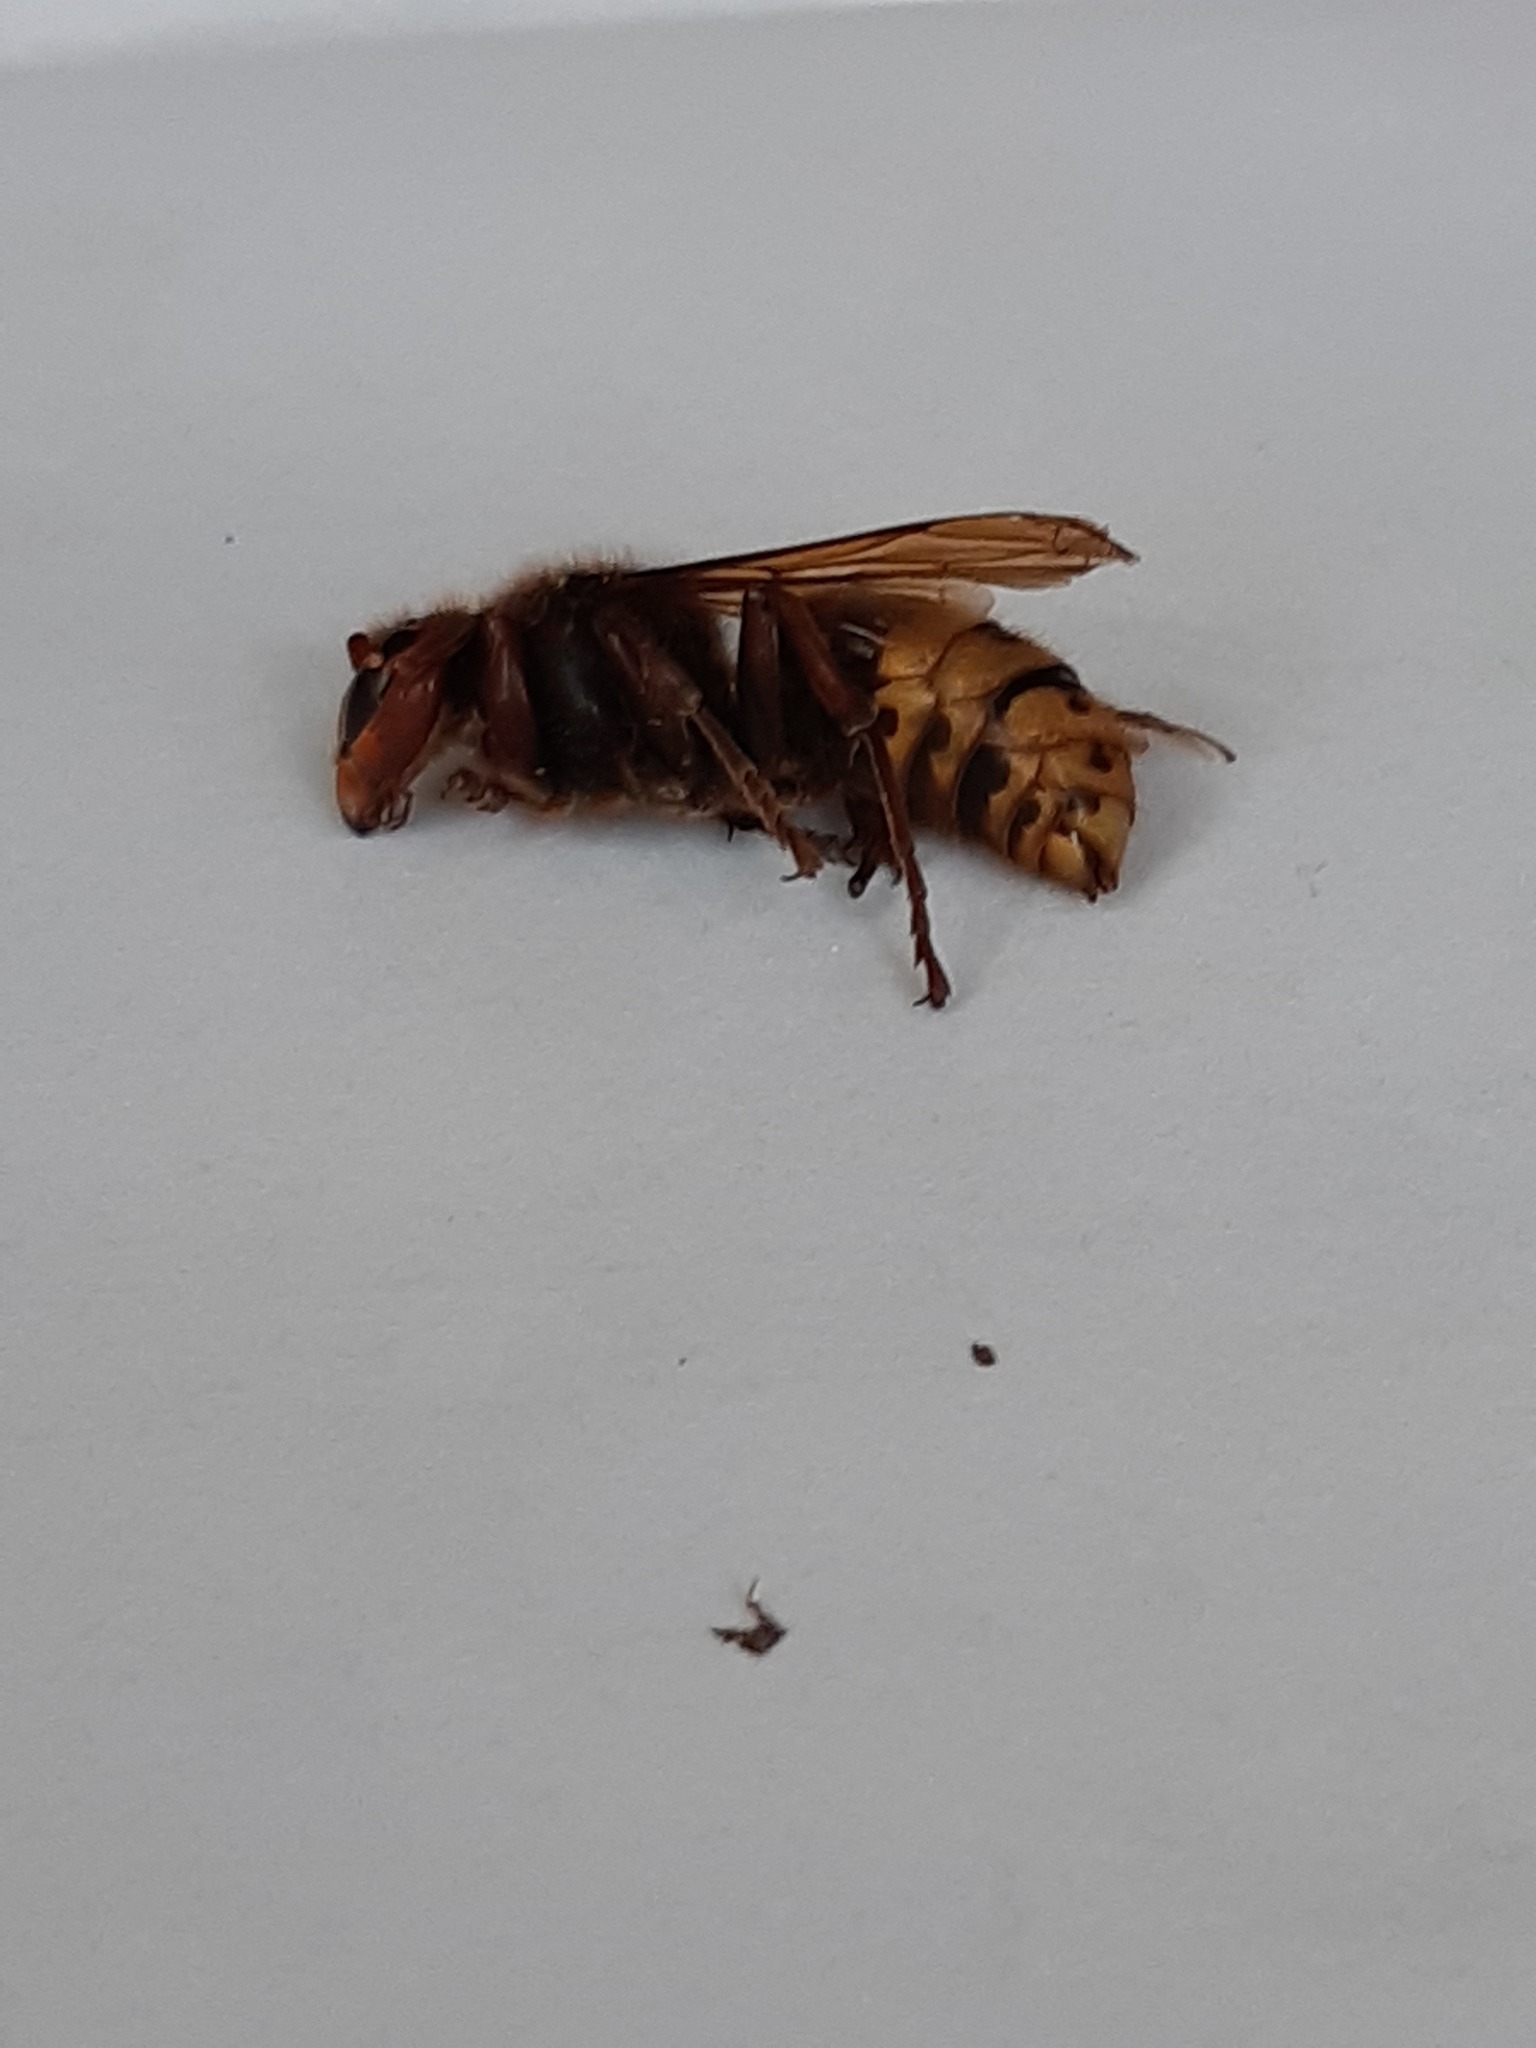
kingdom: Animalia
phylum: Arthropoda
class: Insecta
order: Hymenoptera
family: Vespidae
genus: Vespa
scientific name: Vespa crabro
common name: Hornet
